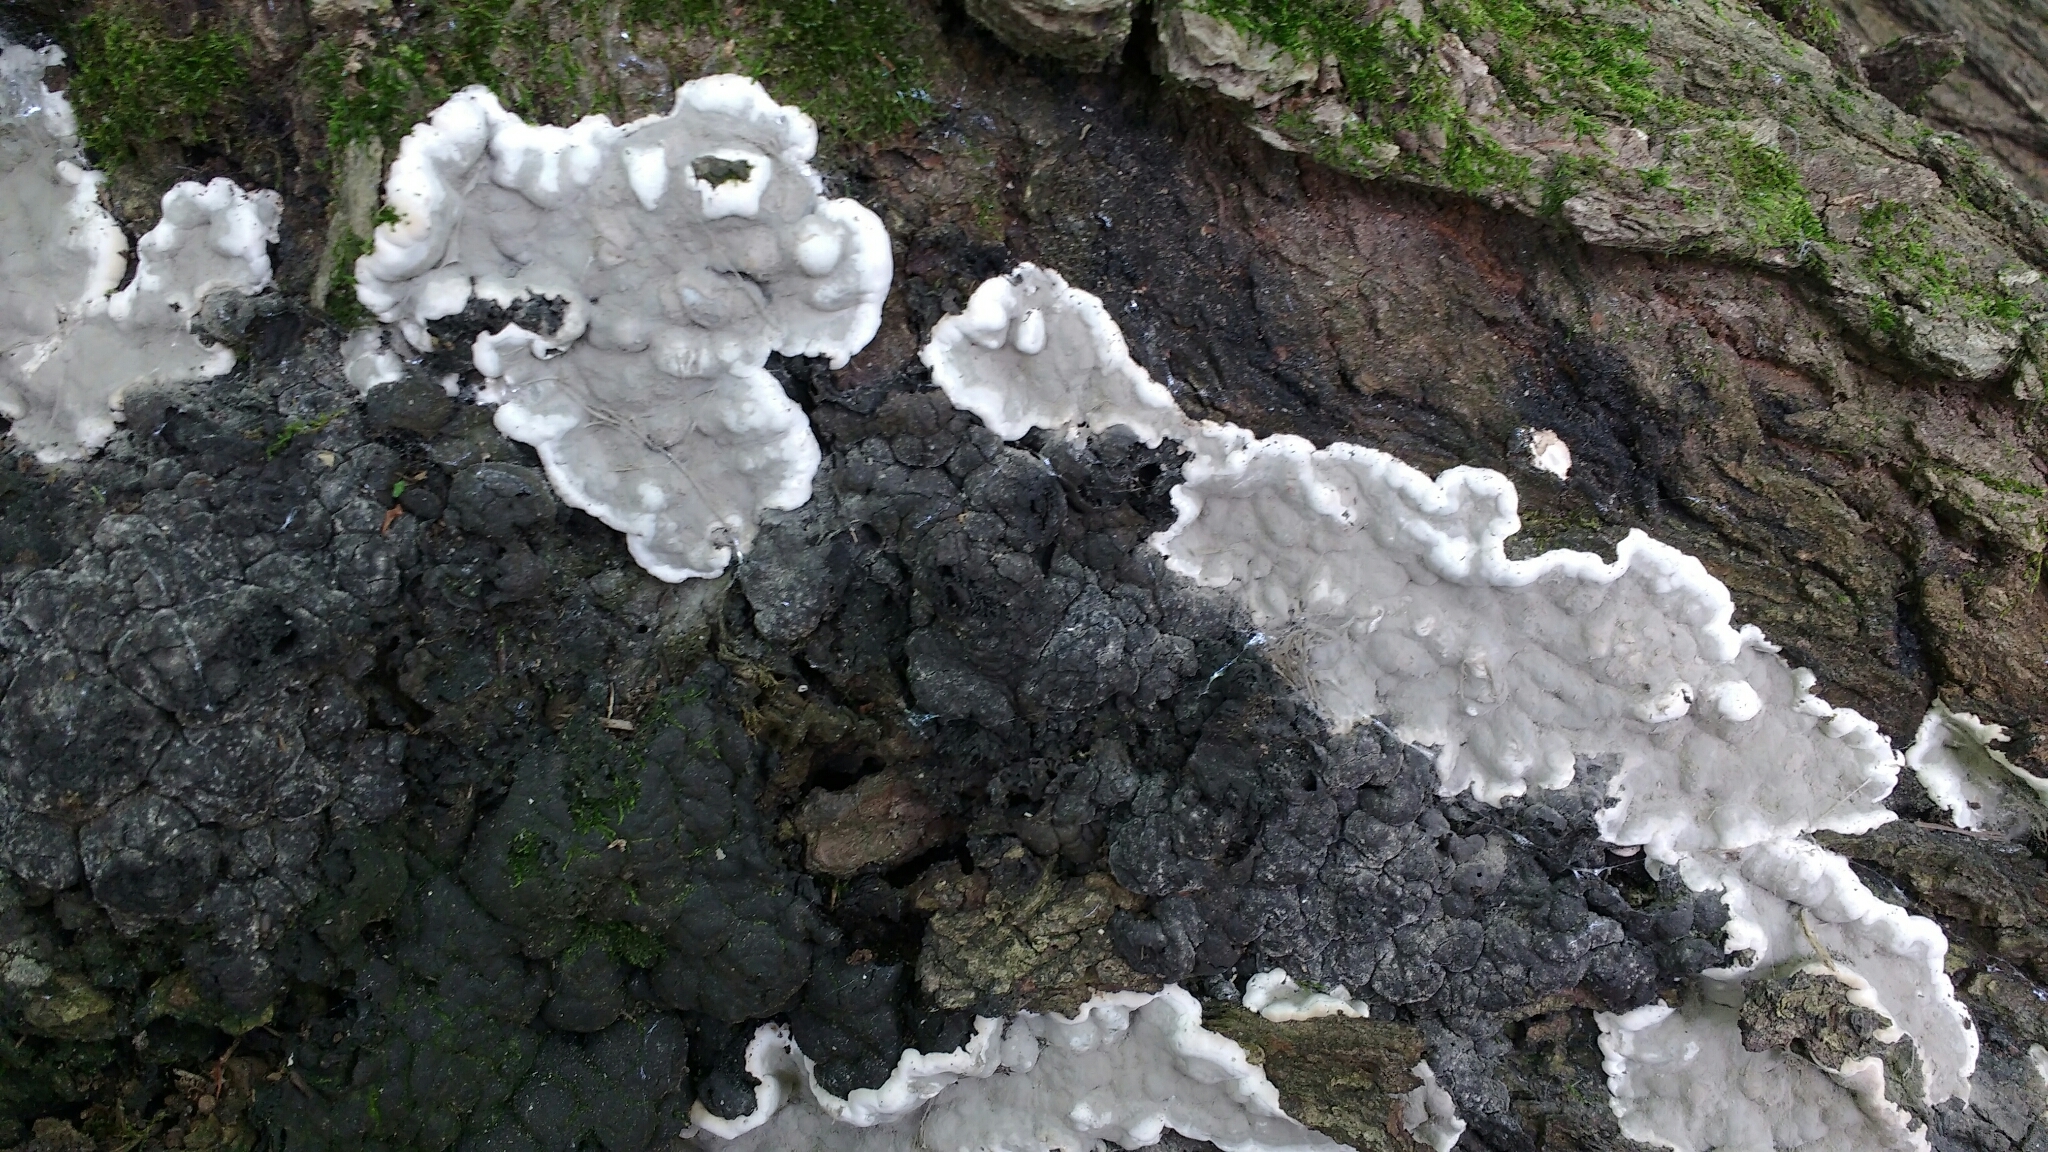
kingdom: Fungi
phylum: Ascomycota
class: Sordariomycetes
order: Xylariales
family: Xylariaceae
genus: Kretzschmaria
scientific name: Kretzschmaria deusta
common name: Brittle cinder
